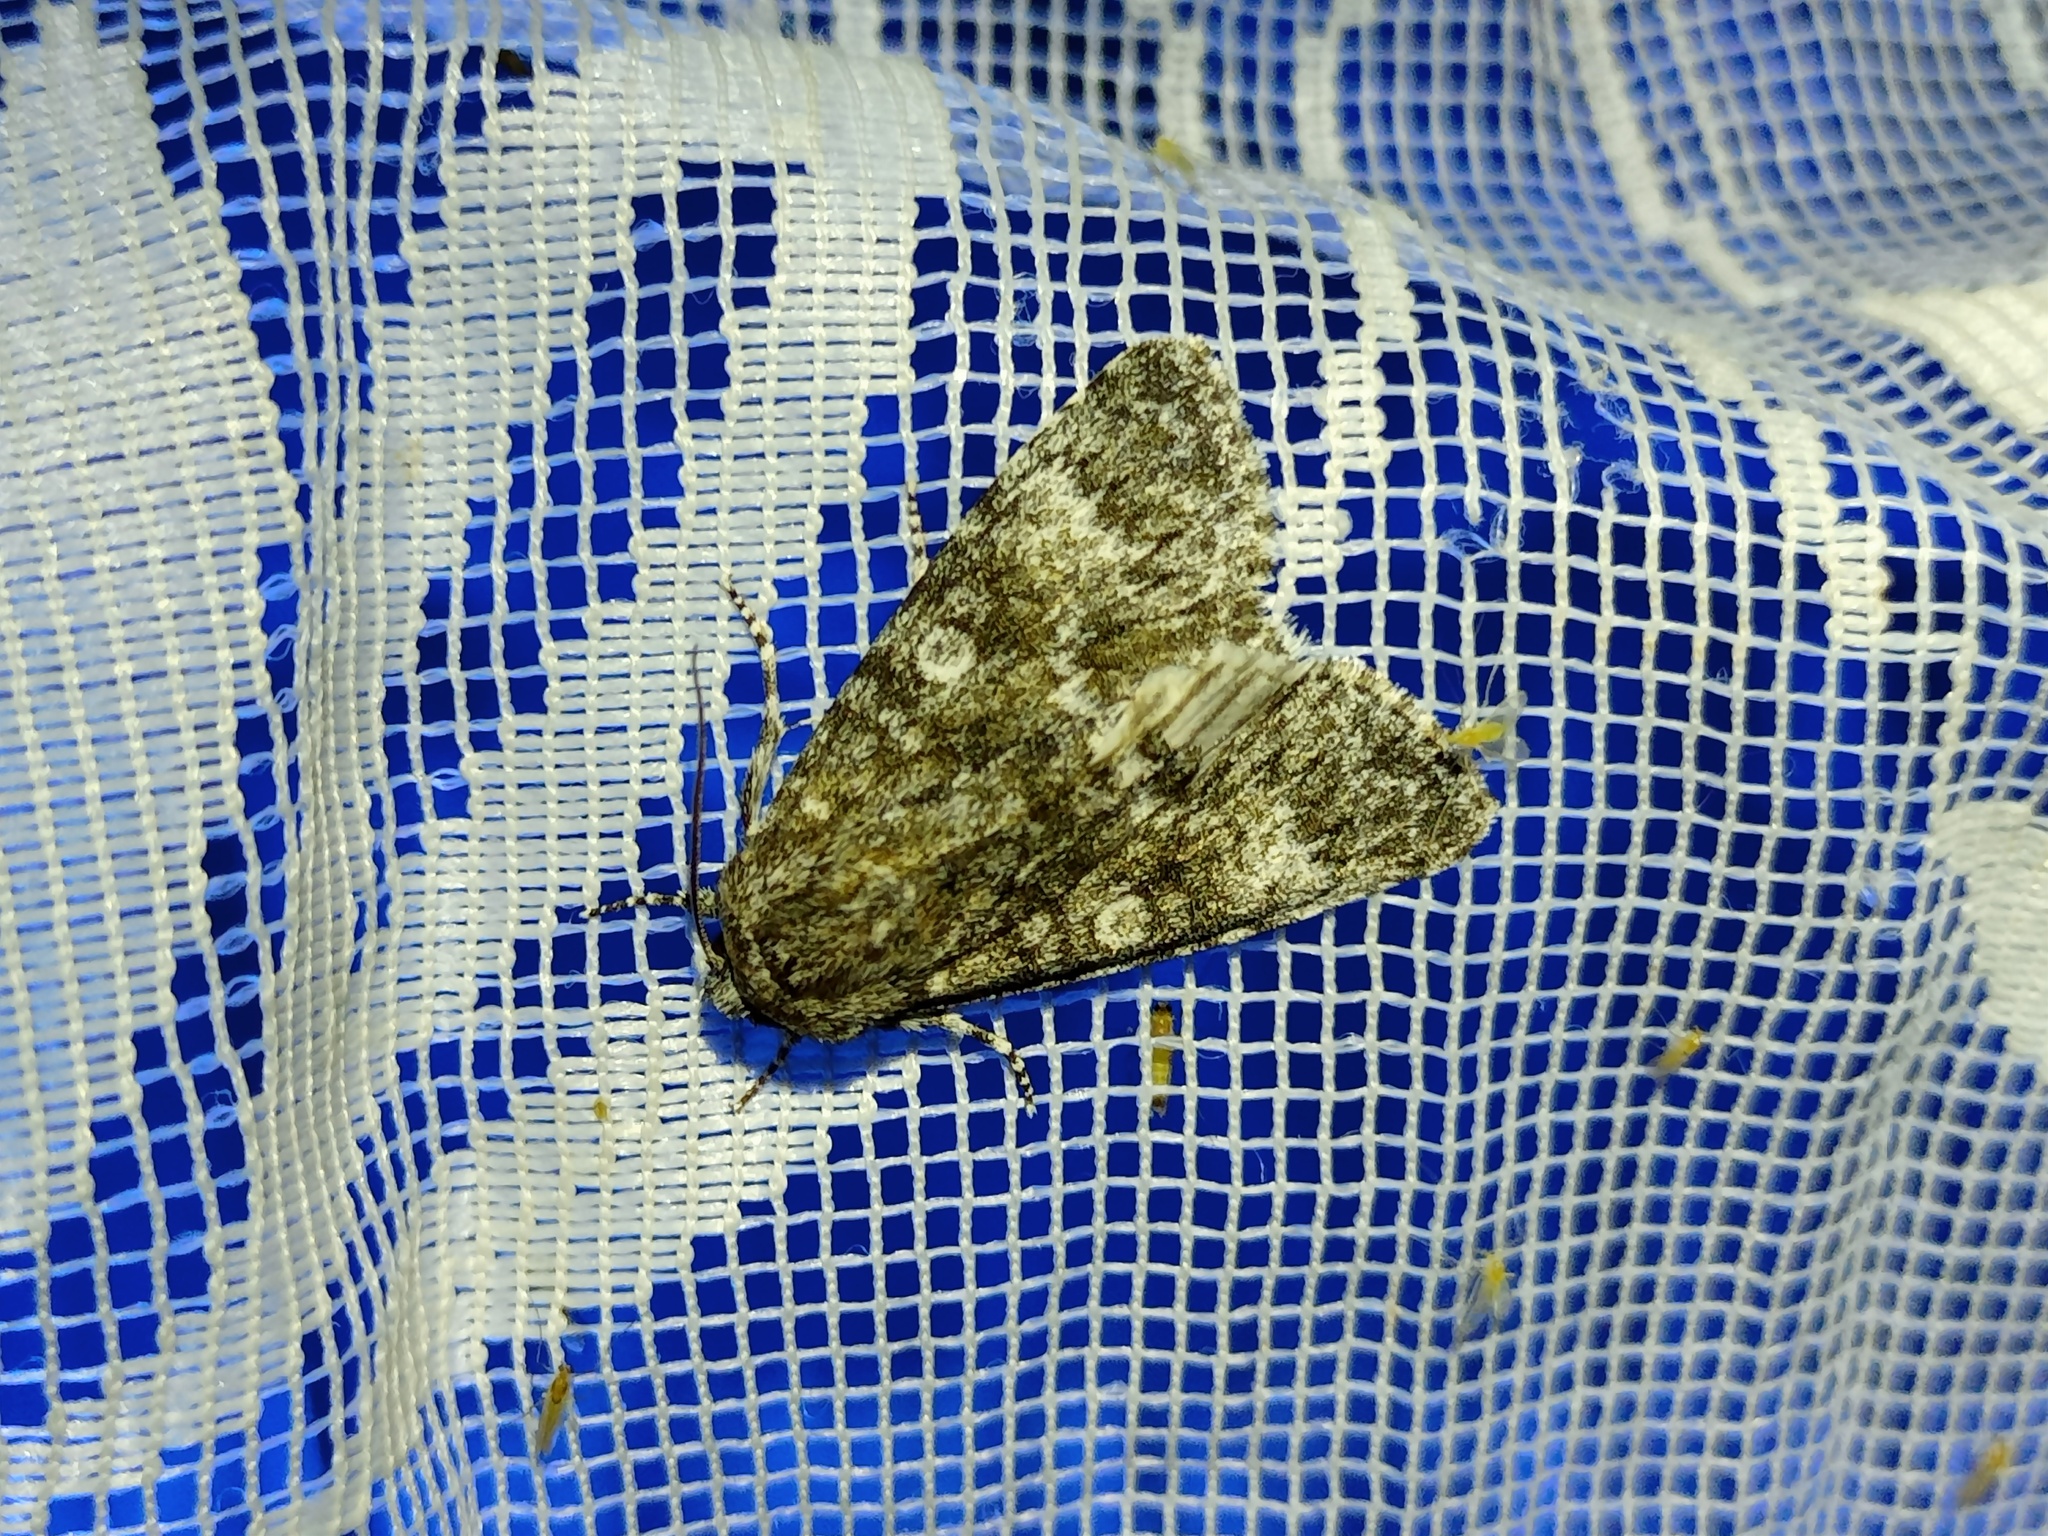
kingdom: Animalia
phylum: Arthropoda
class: Insecta
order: Lepidoptera
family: Noctuidae
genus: Acronicta
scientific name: Acronicta megacephala
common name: Poplar grey
